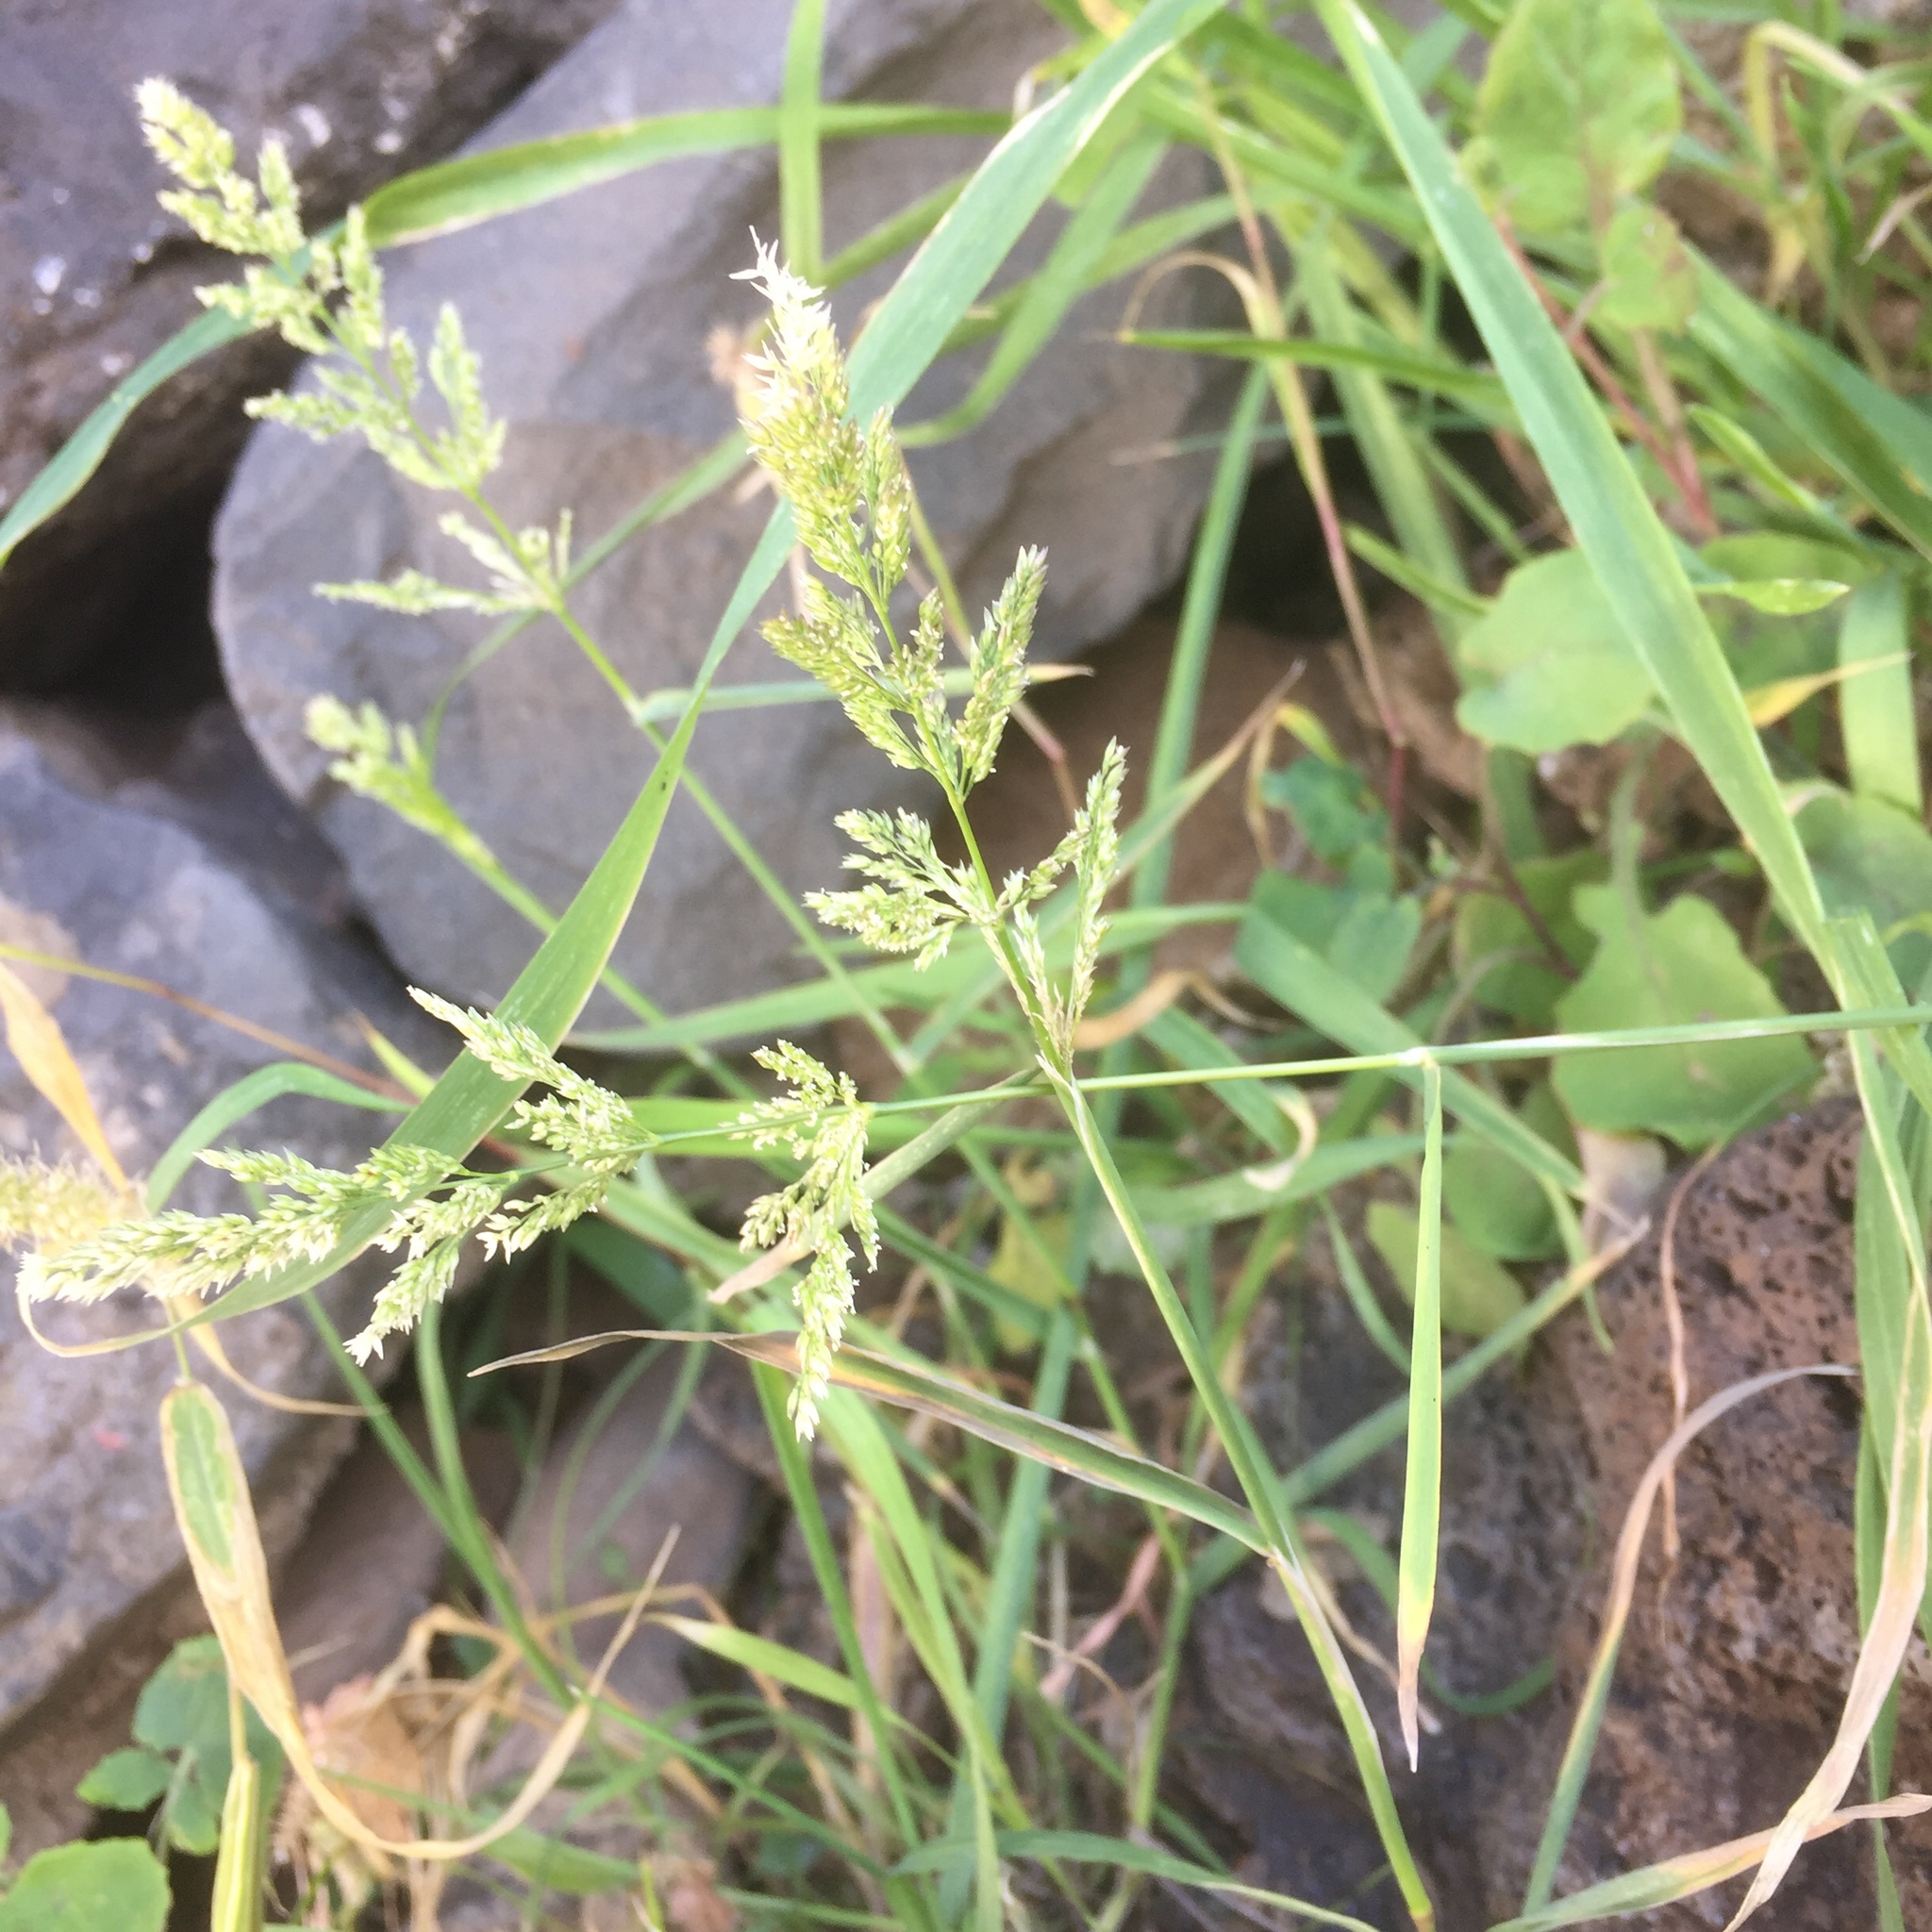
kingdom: Plantae
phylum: Tracheophyta
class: Liliopsida
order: Poales
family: Poaceae
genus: Polypogon
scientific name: Polypogon viridis
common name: Water bent
